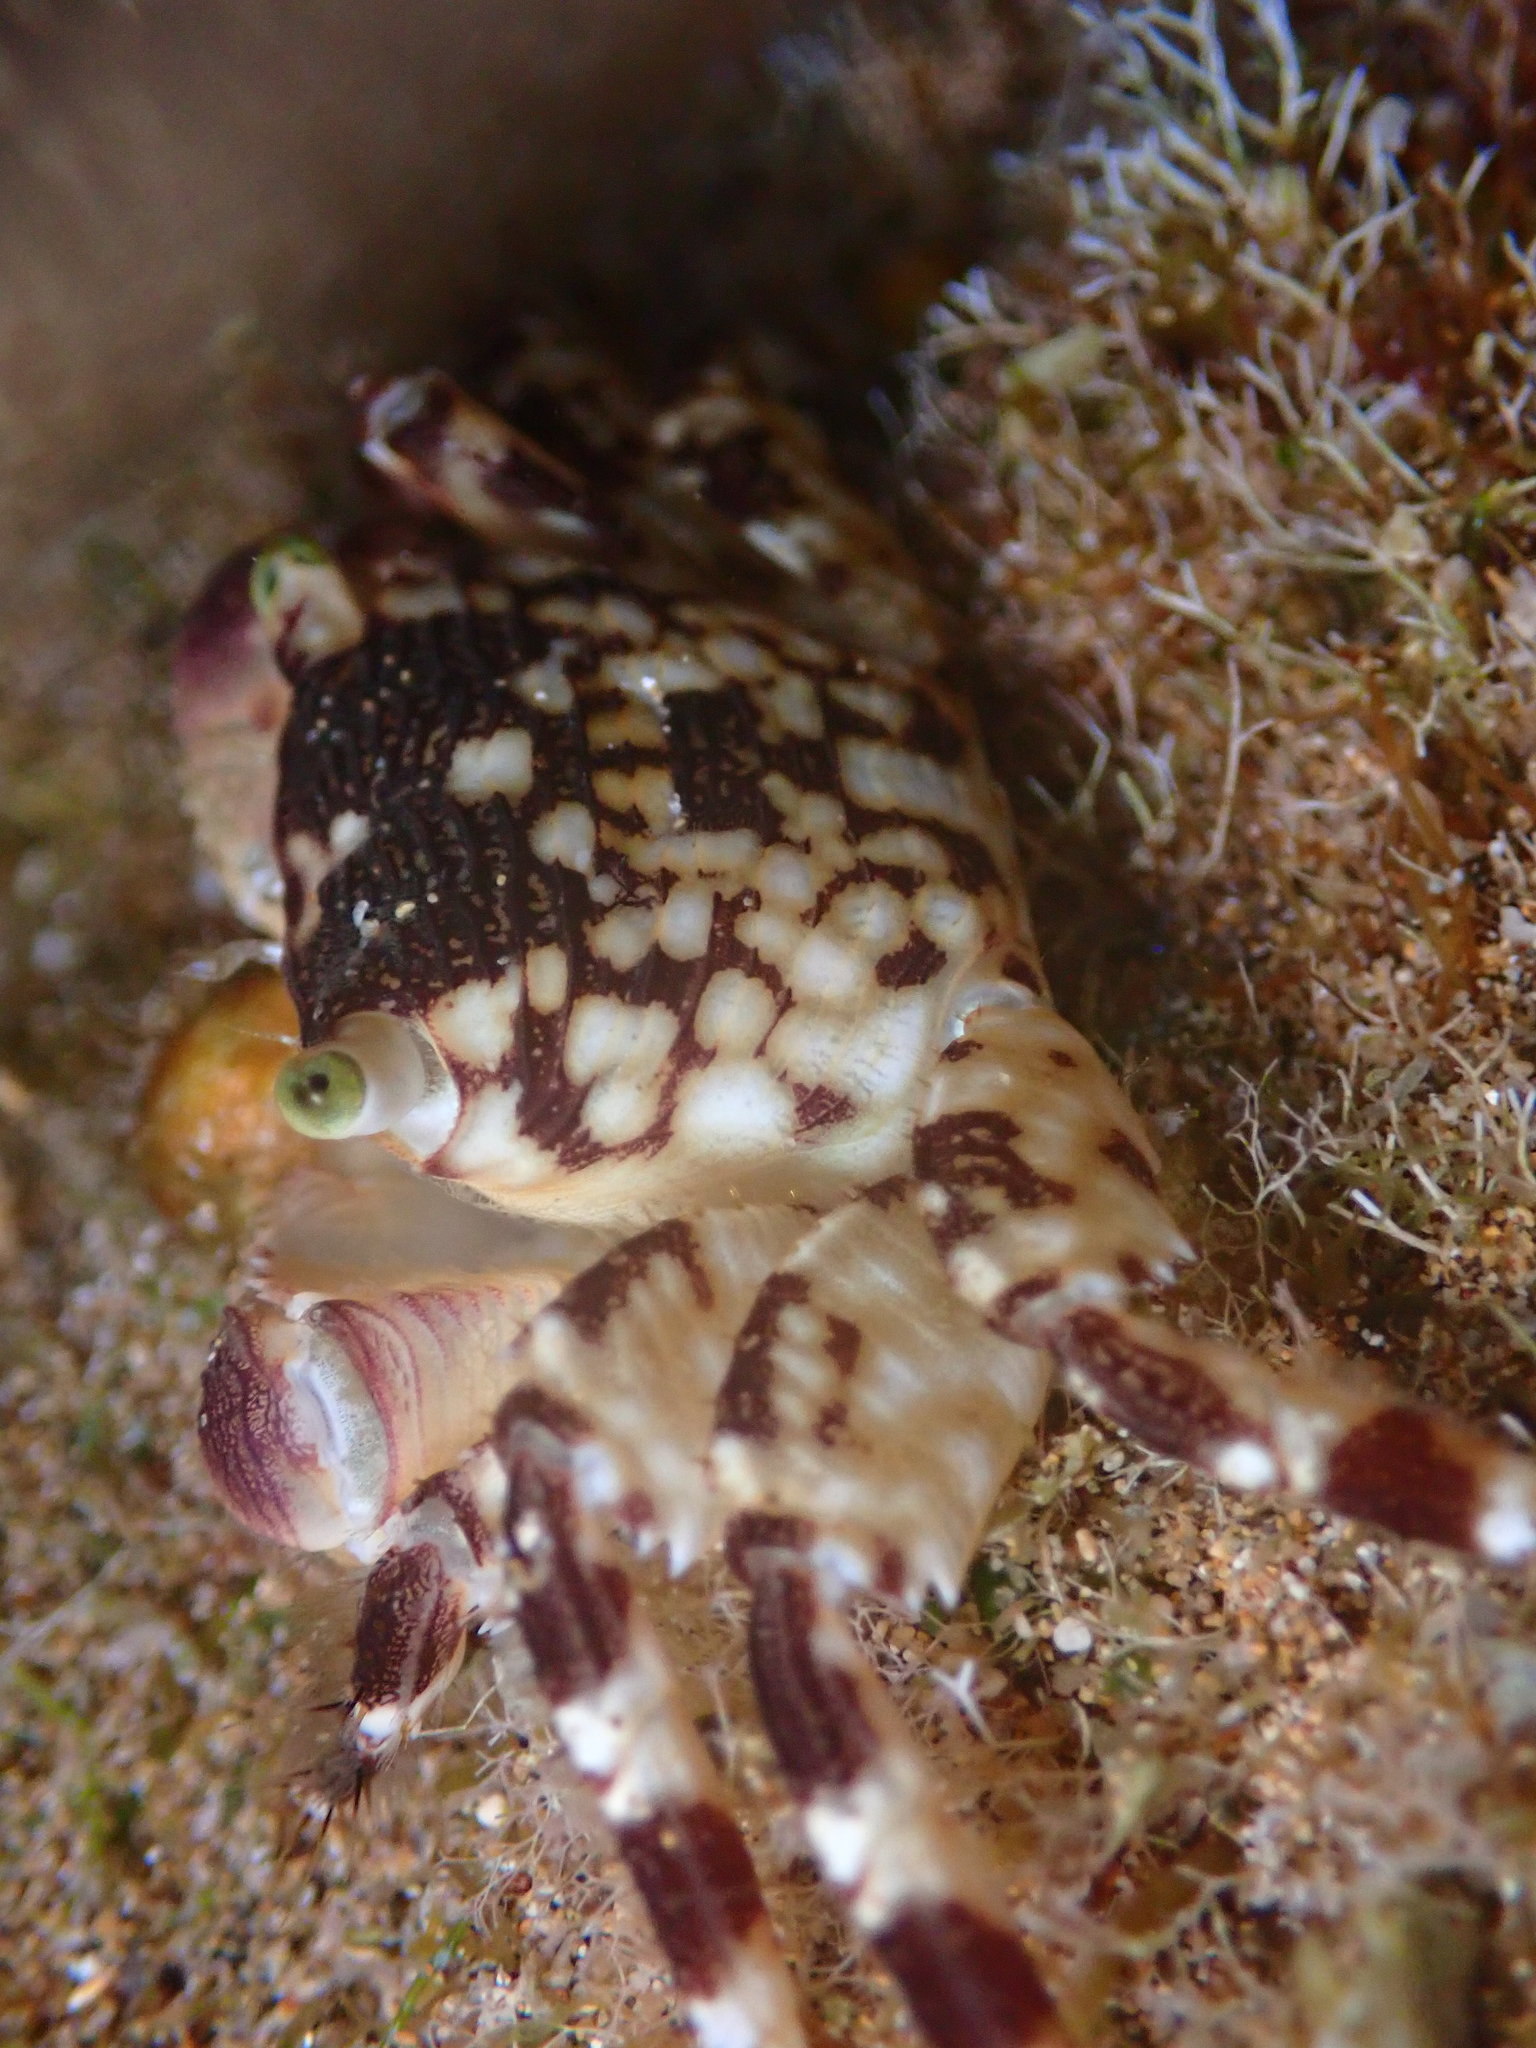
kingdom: Animalia
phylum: Arthropoda
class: Malacostraca
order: Decapoda
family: Grapsidae
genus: Pachygrapsus
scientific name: Pachygrapsus plicatus
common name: Pleated rock crab
